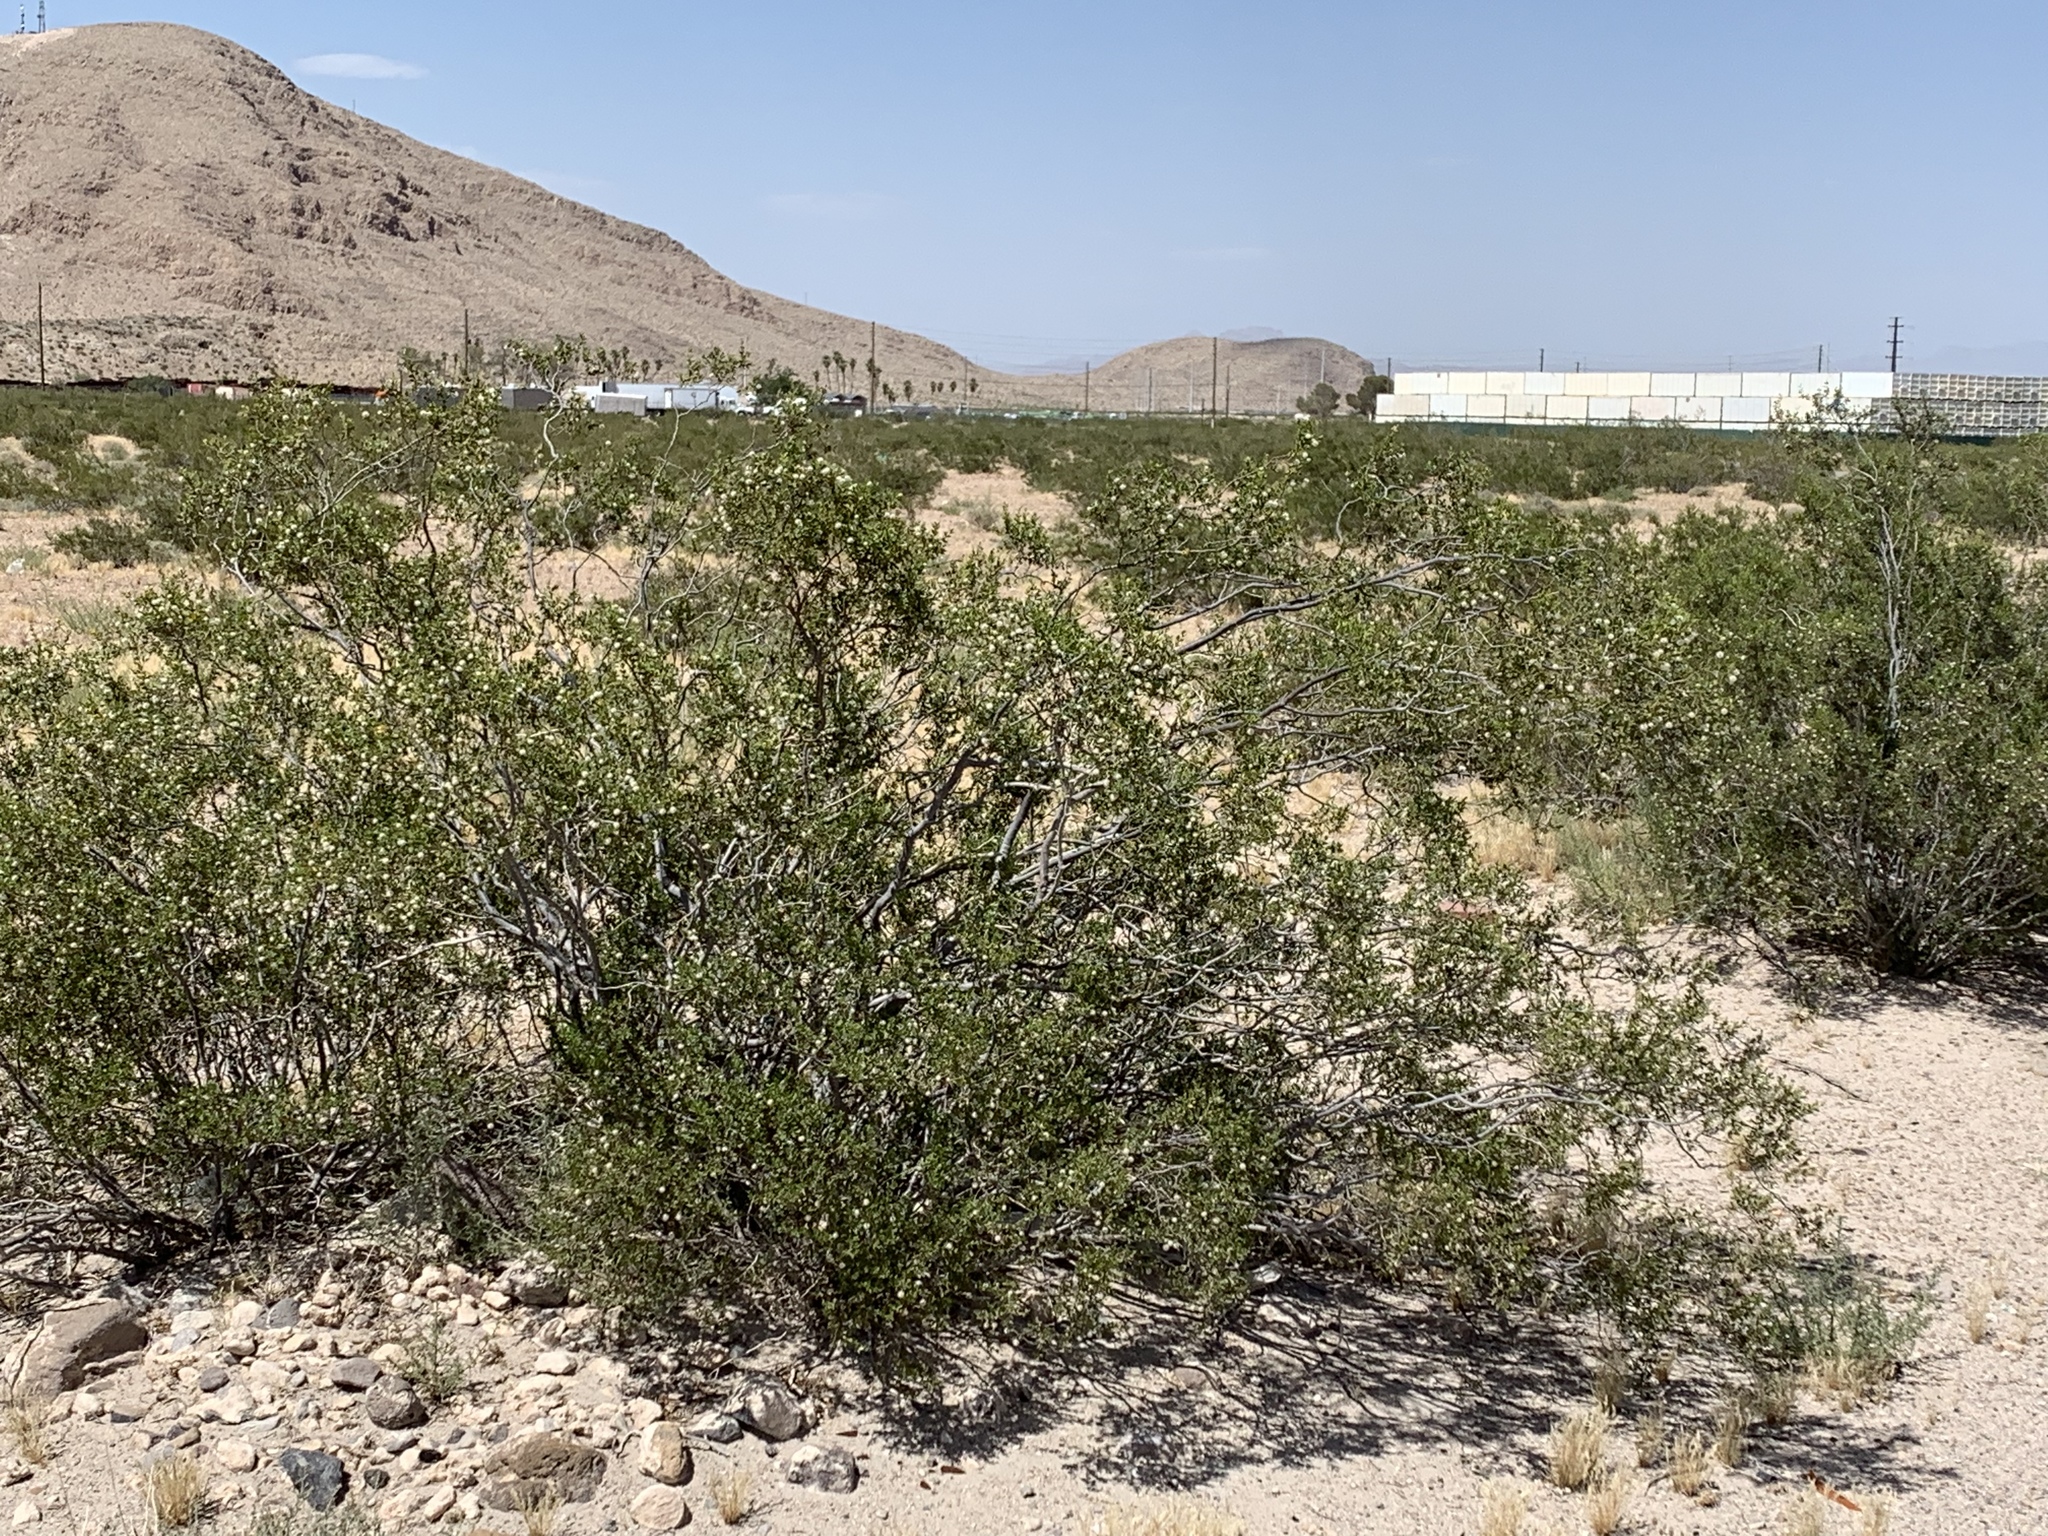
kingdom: Plantae
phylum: Tracheophyta
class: Magnoliopsida
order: Zygophyllales
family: Zygophyllaceae
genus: Larrea
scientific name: Larrea tridentata
